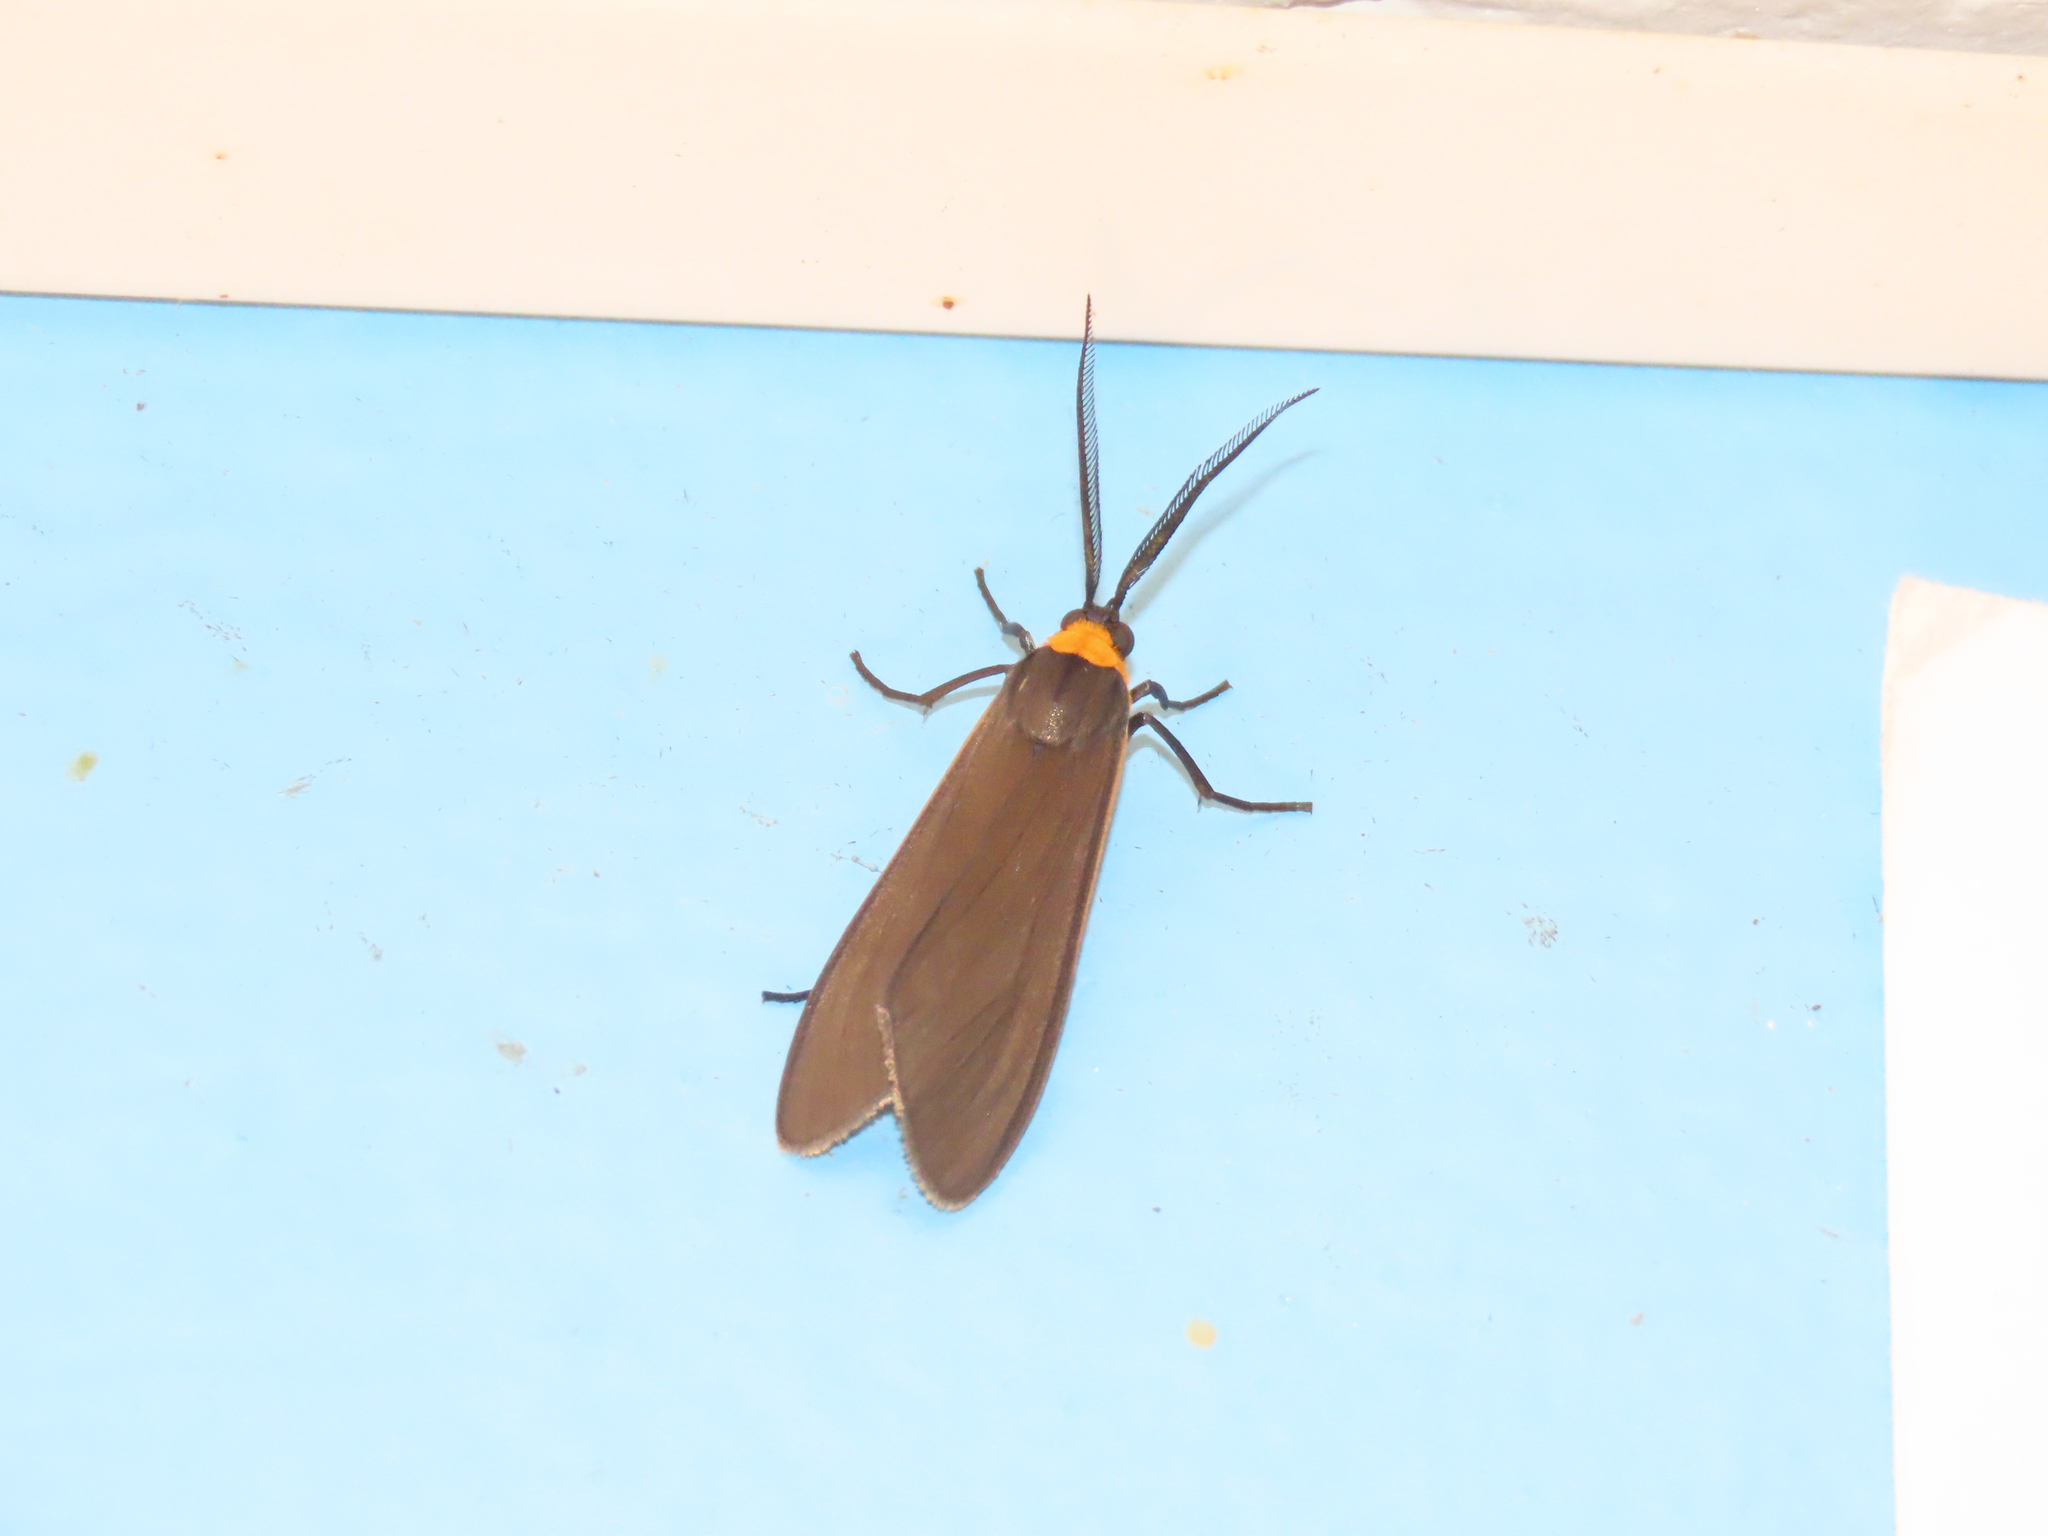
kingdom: Animalia
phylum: Arthropoda
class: Insecta
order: Lepidoptera
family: Erebidae
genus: Cisseps
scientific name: Cisseps fulvicollis
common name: Yellow-collared scape moth
